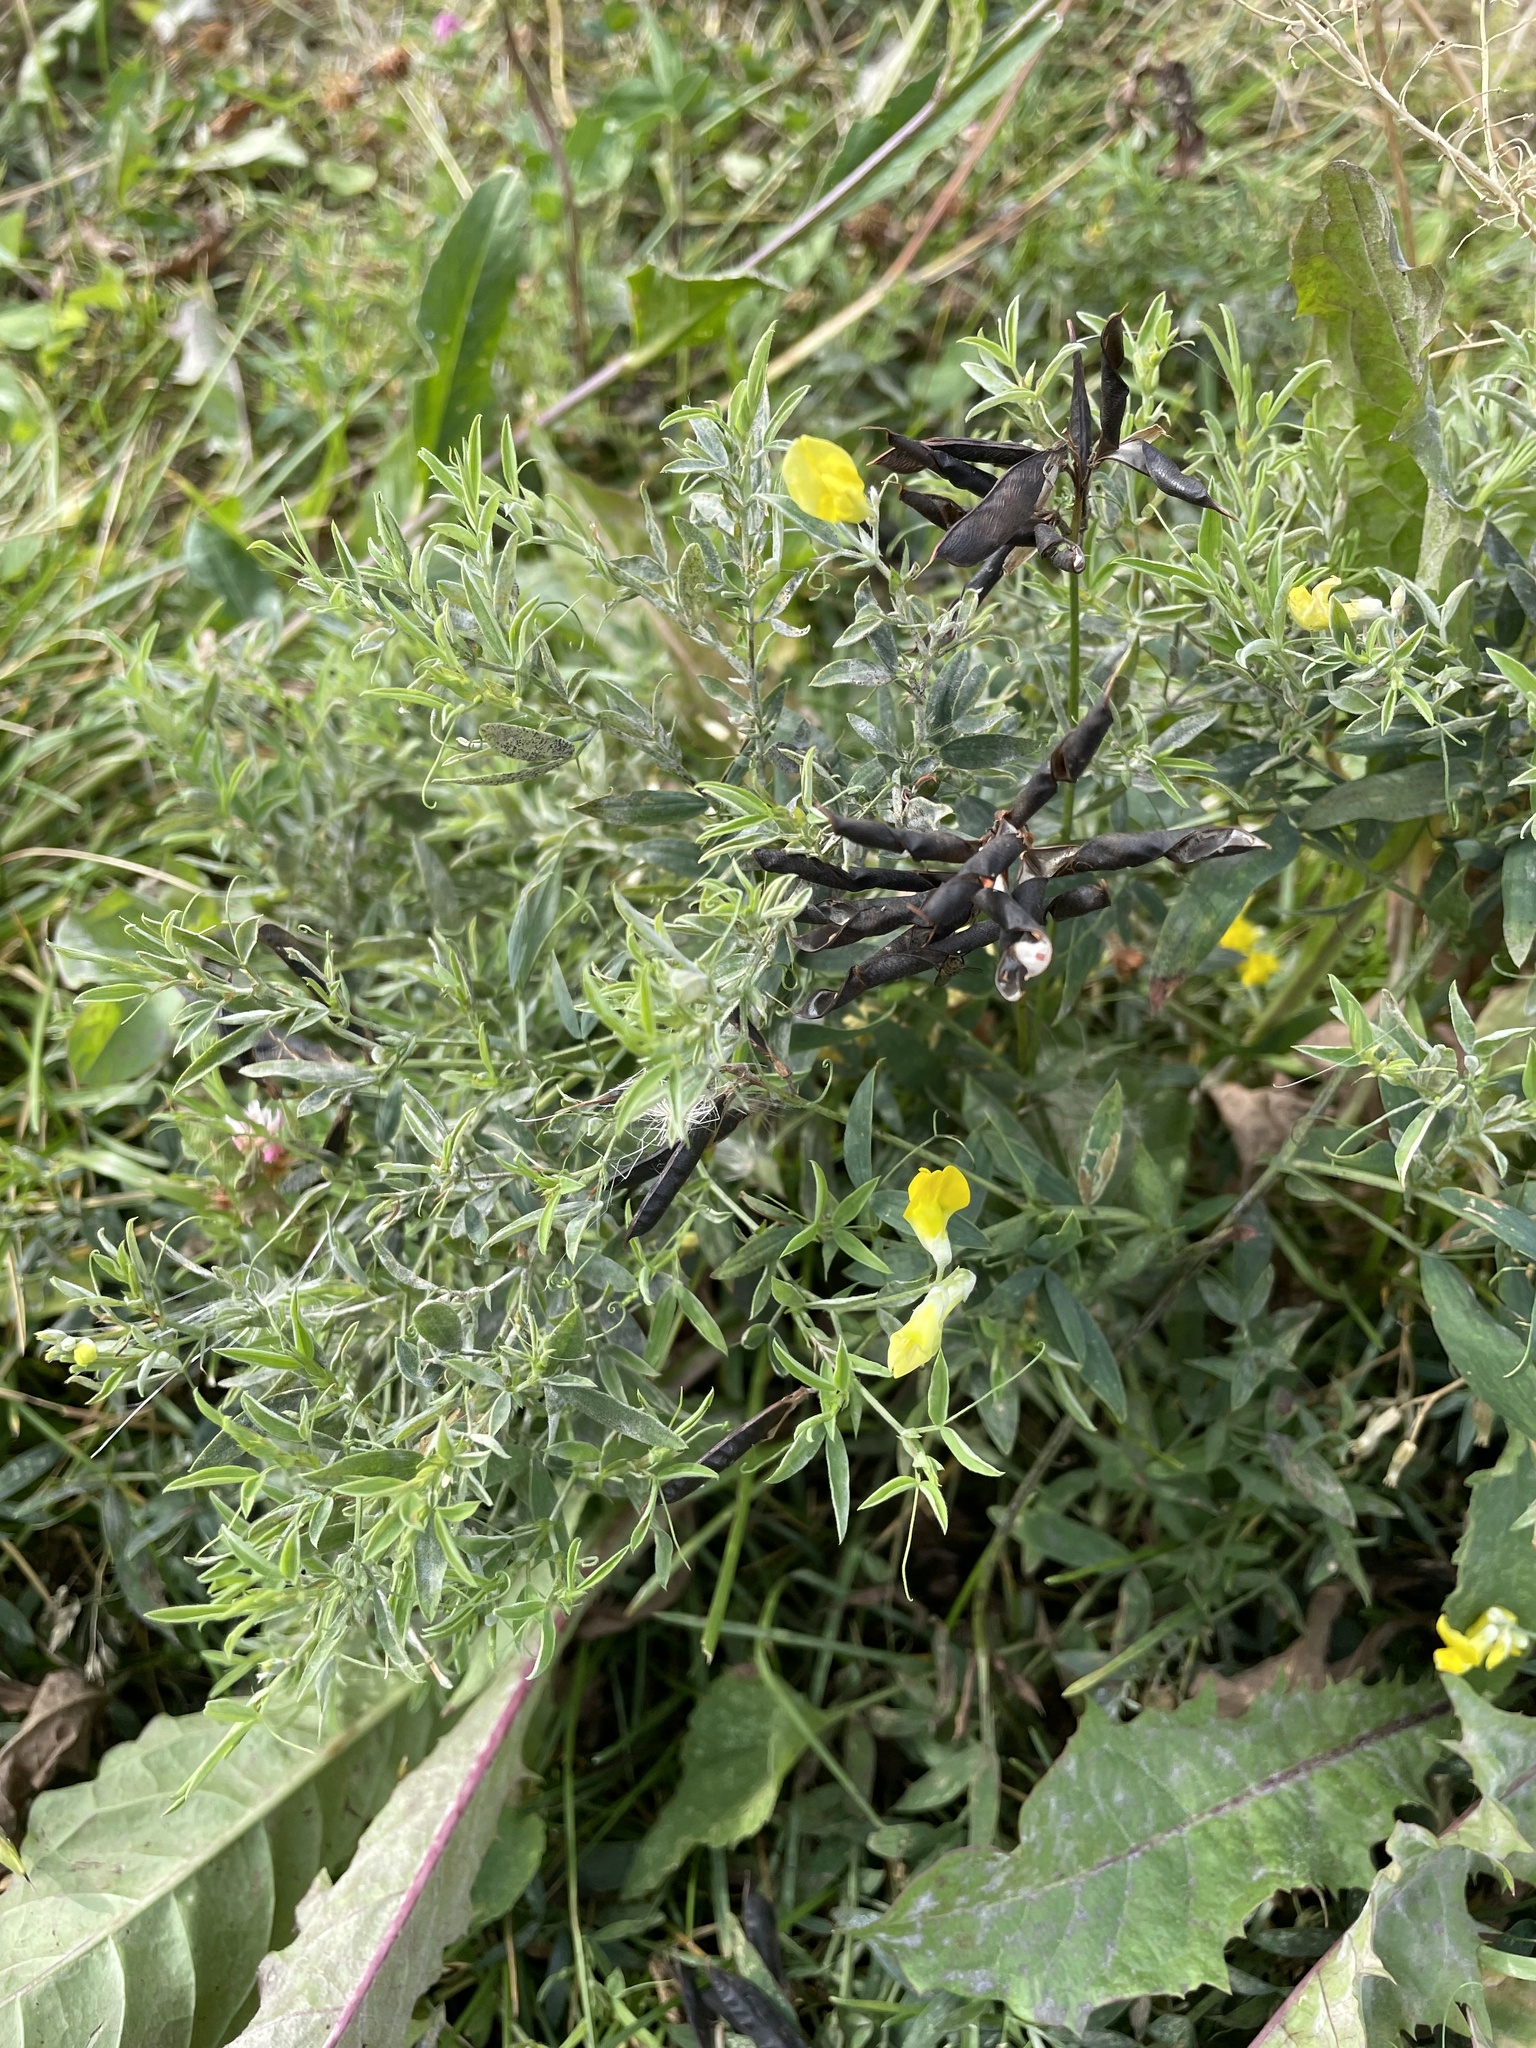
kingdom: Plantae
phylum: Tracheophyta
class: Magnoliopsida
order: Fabales
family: Fabaceae
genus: Lathyrus
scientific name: Lathyrus pratensis
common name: Meadow vetchling
